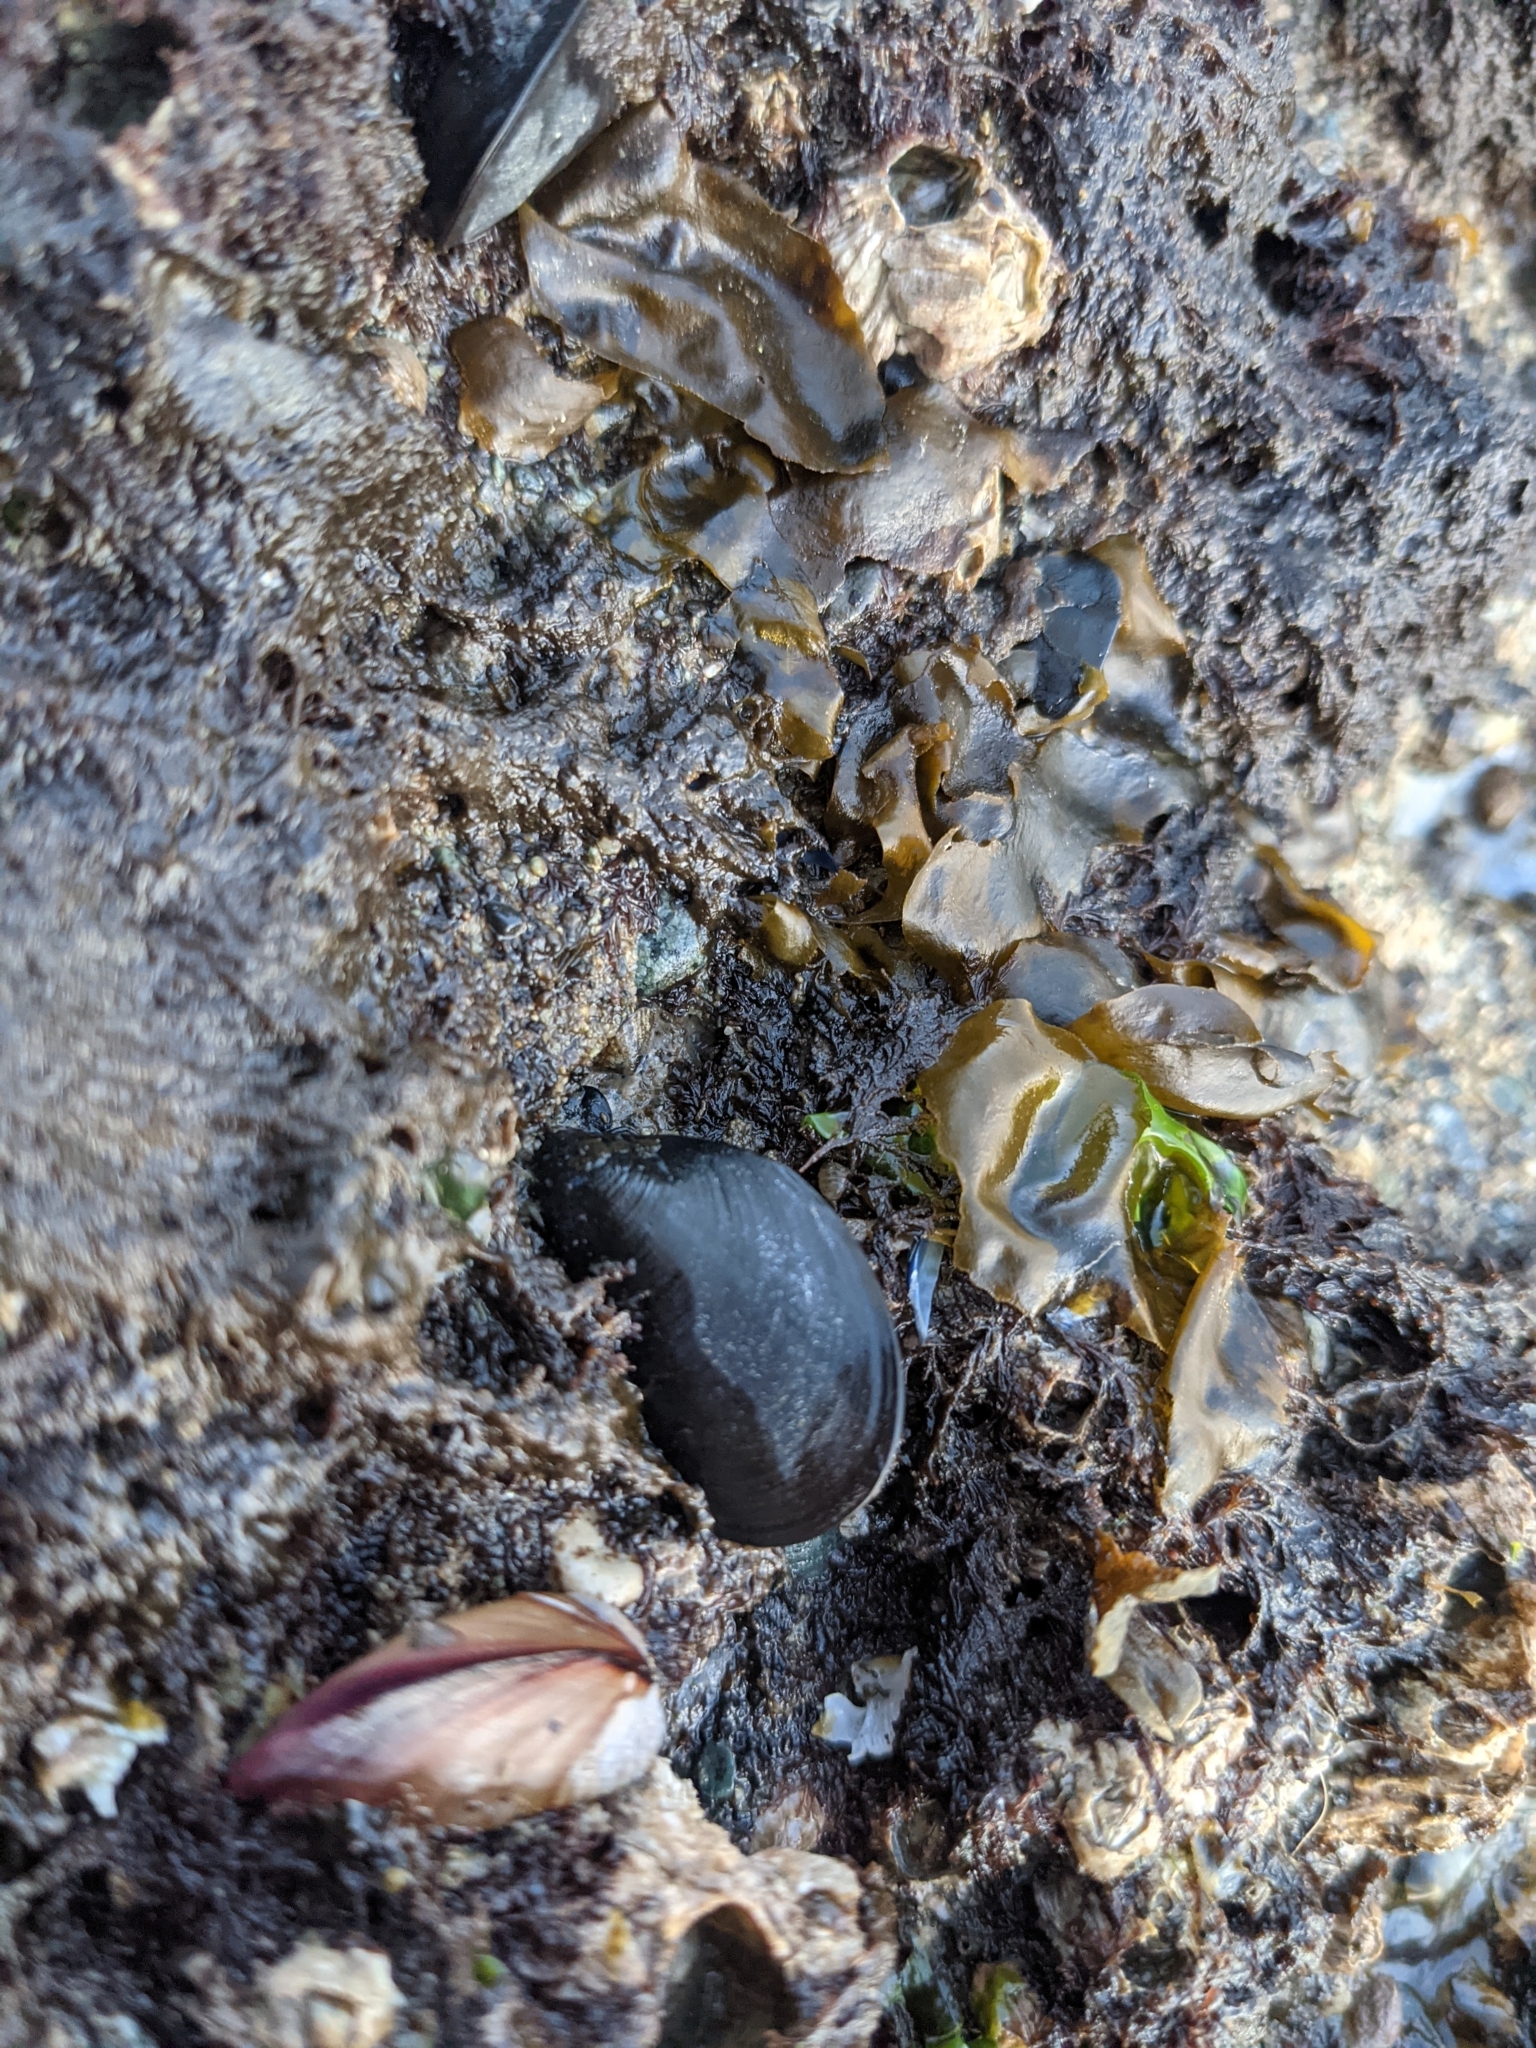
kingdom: Animalia
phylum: Mollusca
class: Bivalvia
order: Mytilida
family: Mytilidae
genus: Mytilus
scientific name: Mytilus
